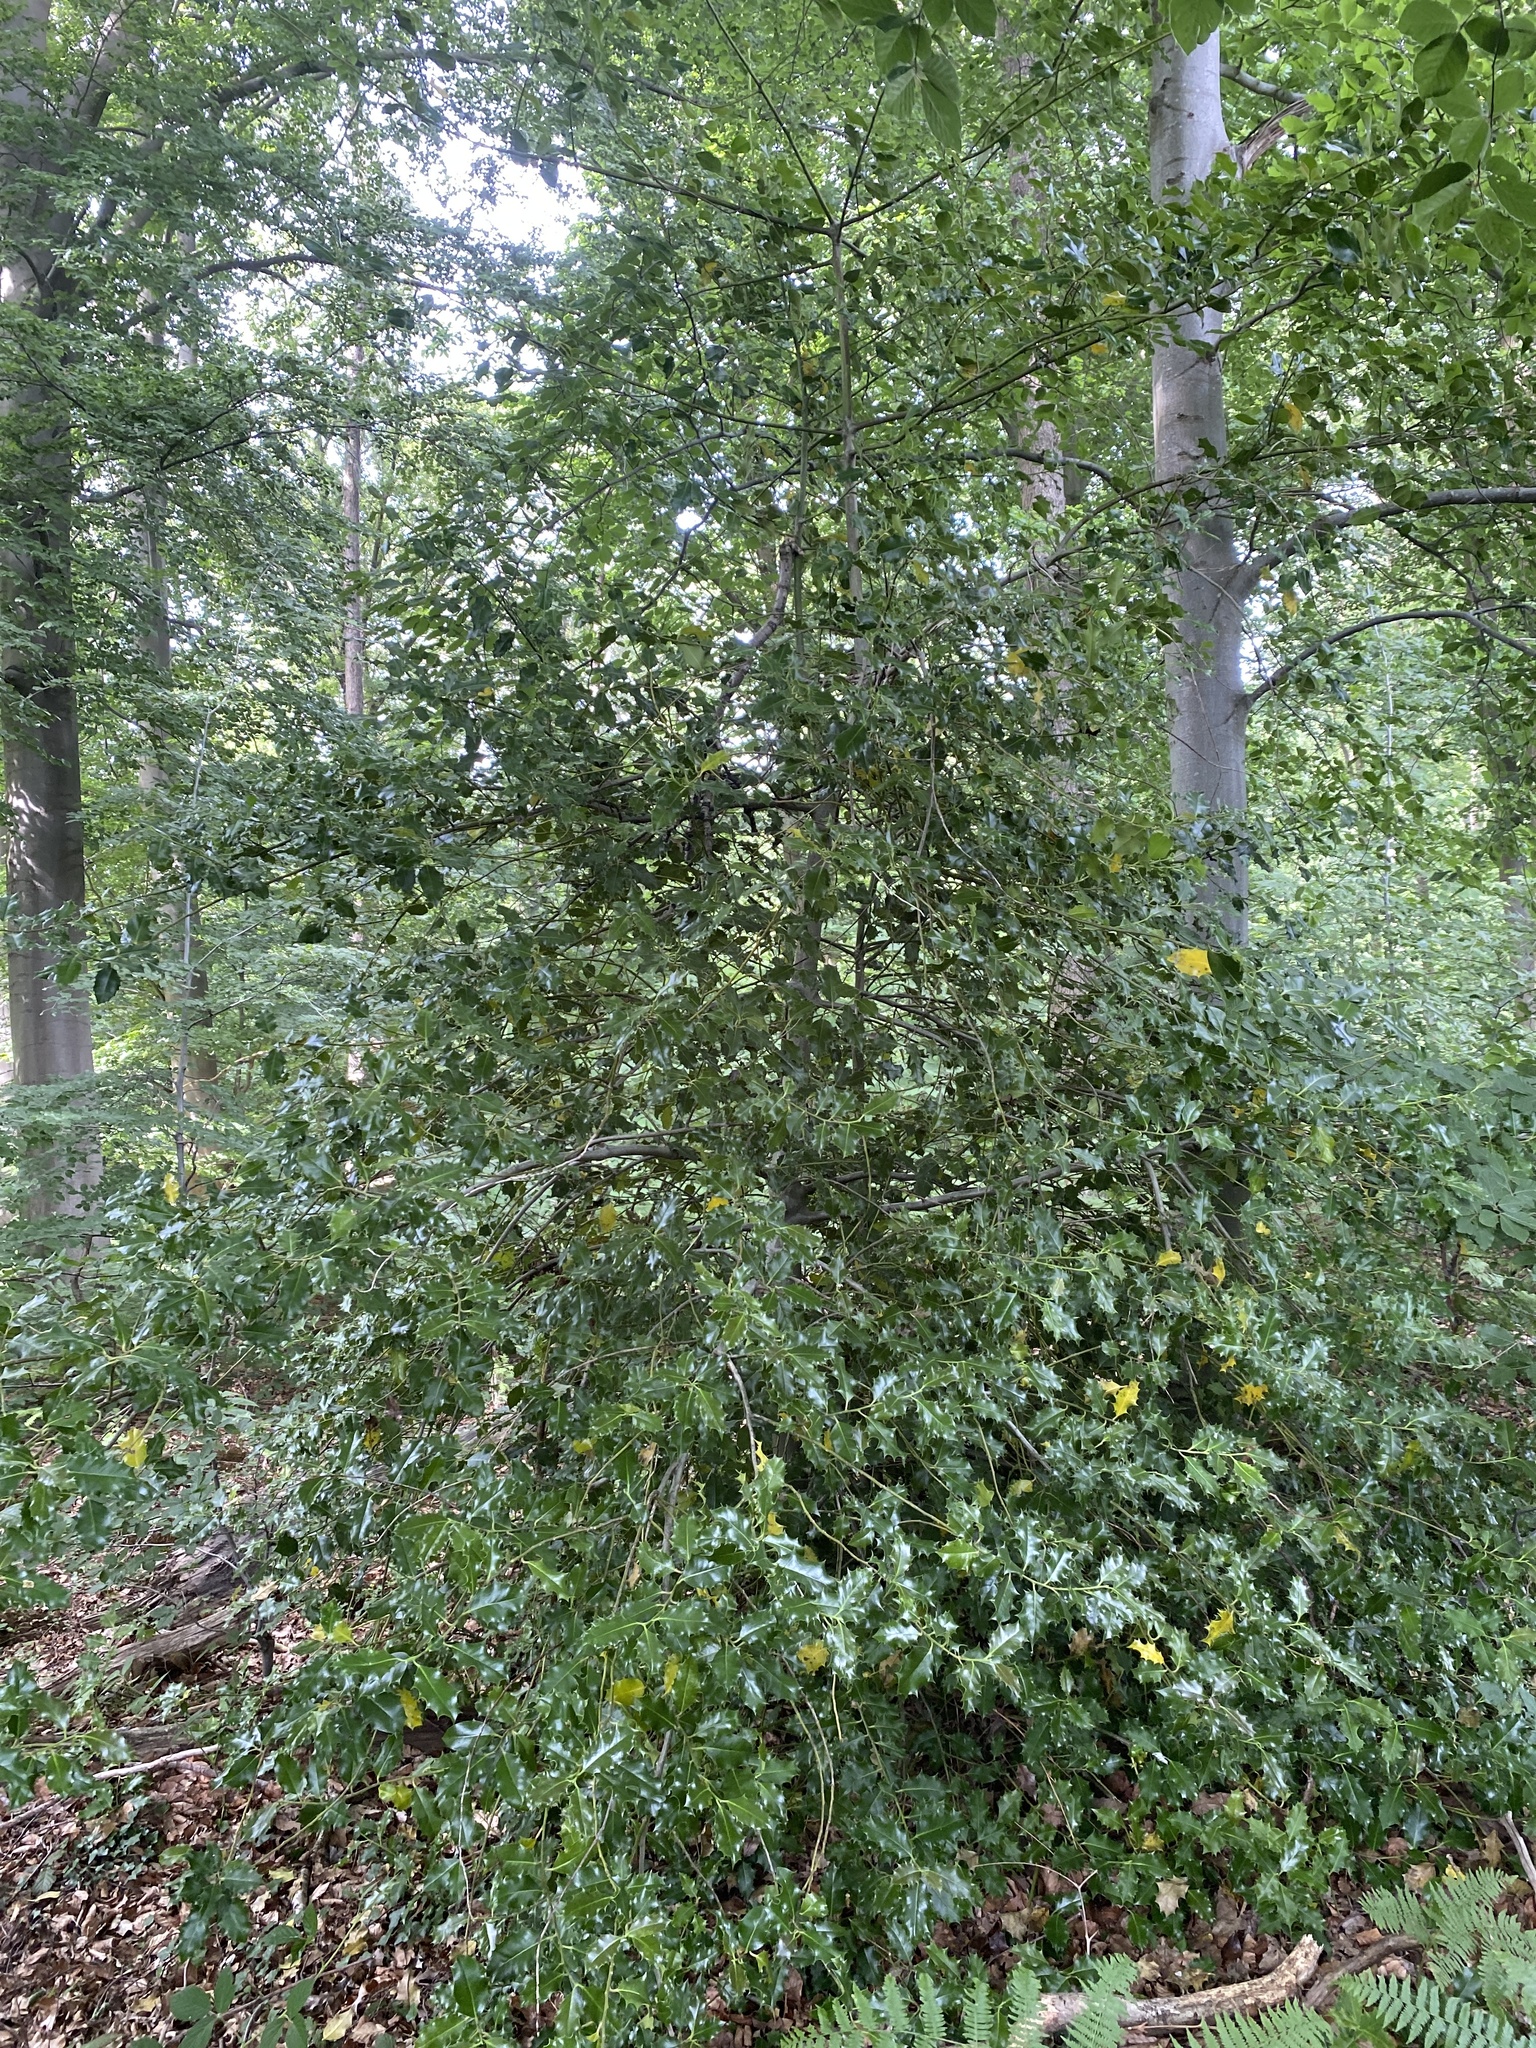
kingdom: Plantae
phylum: Tracheophyta
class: Magnoliopsida
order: Aquifoliales
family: Aquifoliaceae
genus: Ilex
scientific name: Ilex aquifolium
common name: English holly
